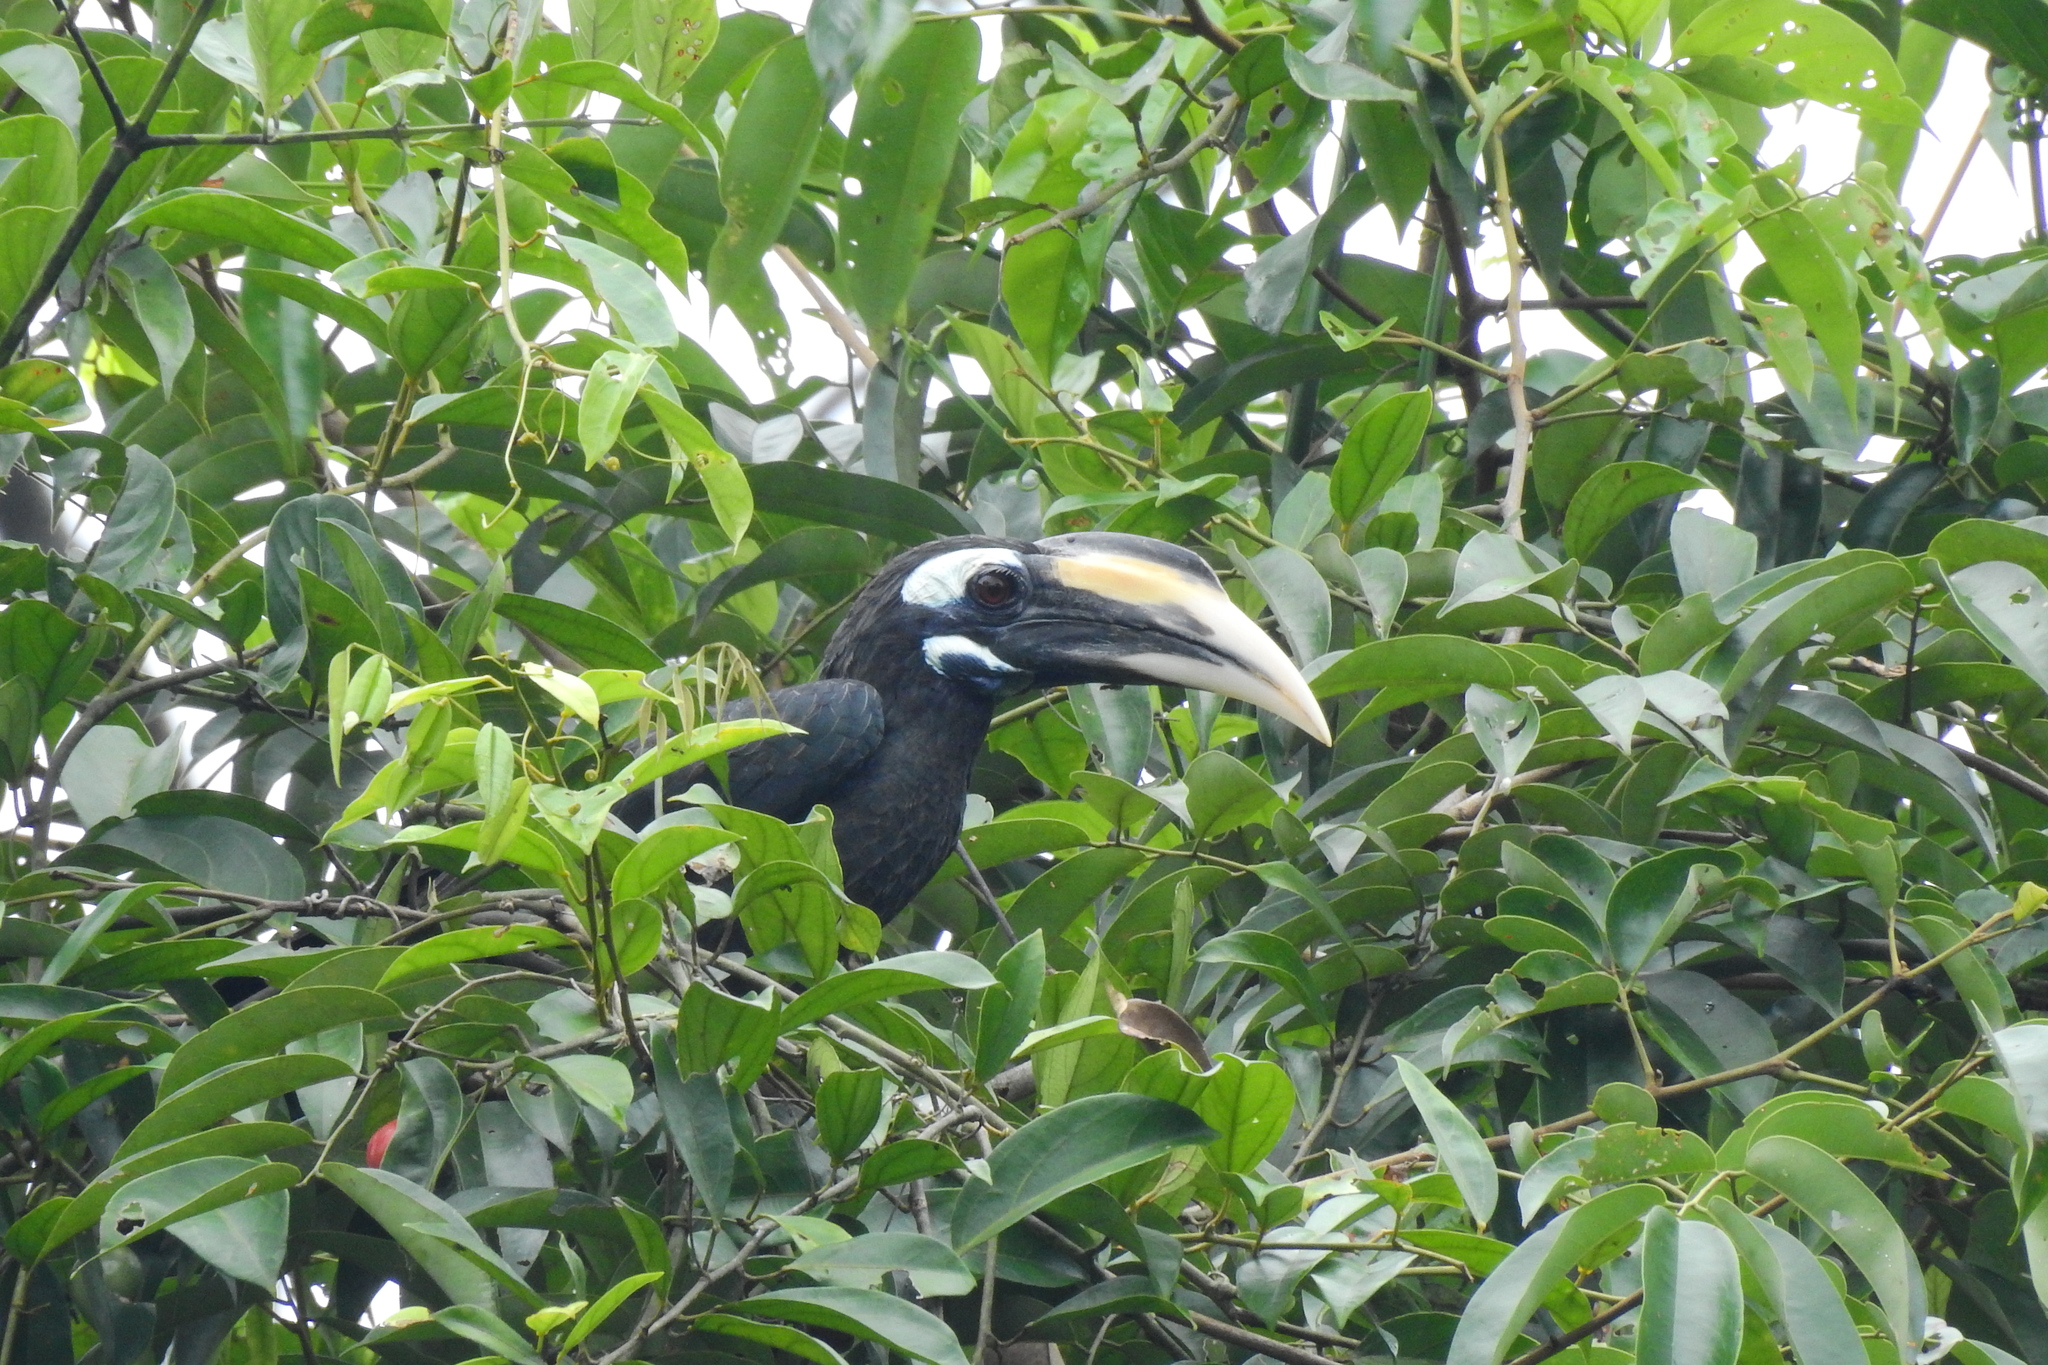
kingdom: Animalia
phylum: Chordata
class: Aves
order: Bucerotiformes
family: Bucerotidae
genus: Anorrhinus
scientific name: Anorrhinus galeritus
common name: Bushy-crested hornbill
